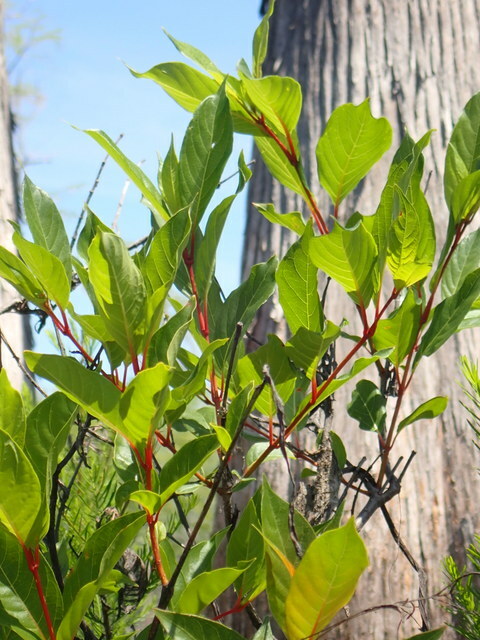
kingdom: Plantae
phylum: Tracheophyta
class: Magnoliopsida
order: Gentianales
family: Rubiaceae
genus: Cephalanthus
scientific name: Cephalanthus occidentalis
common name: Button-willow
